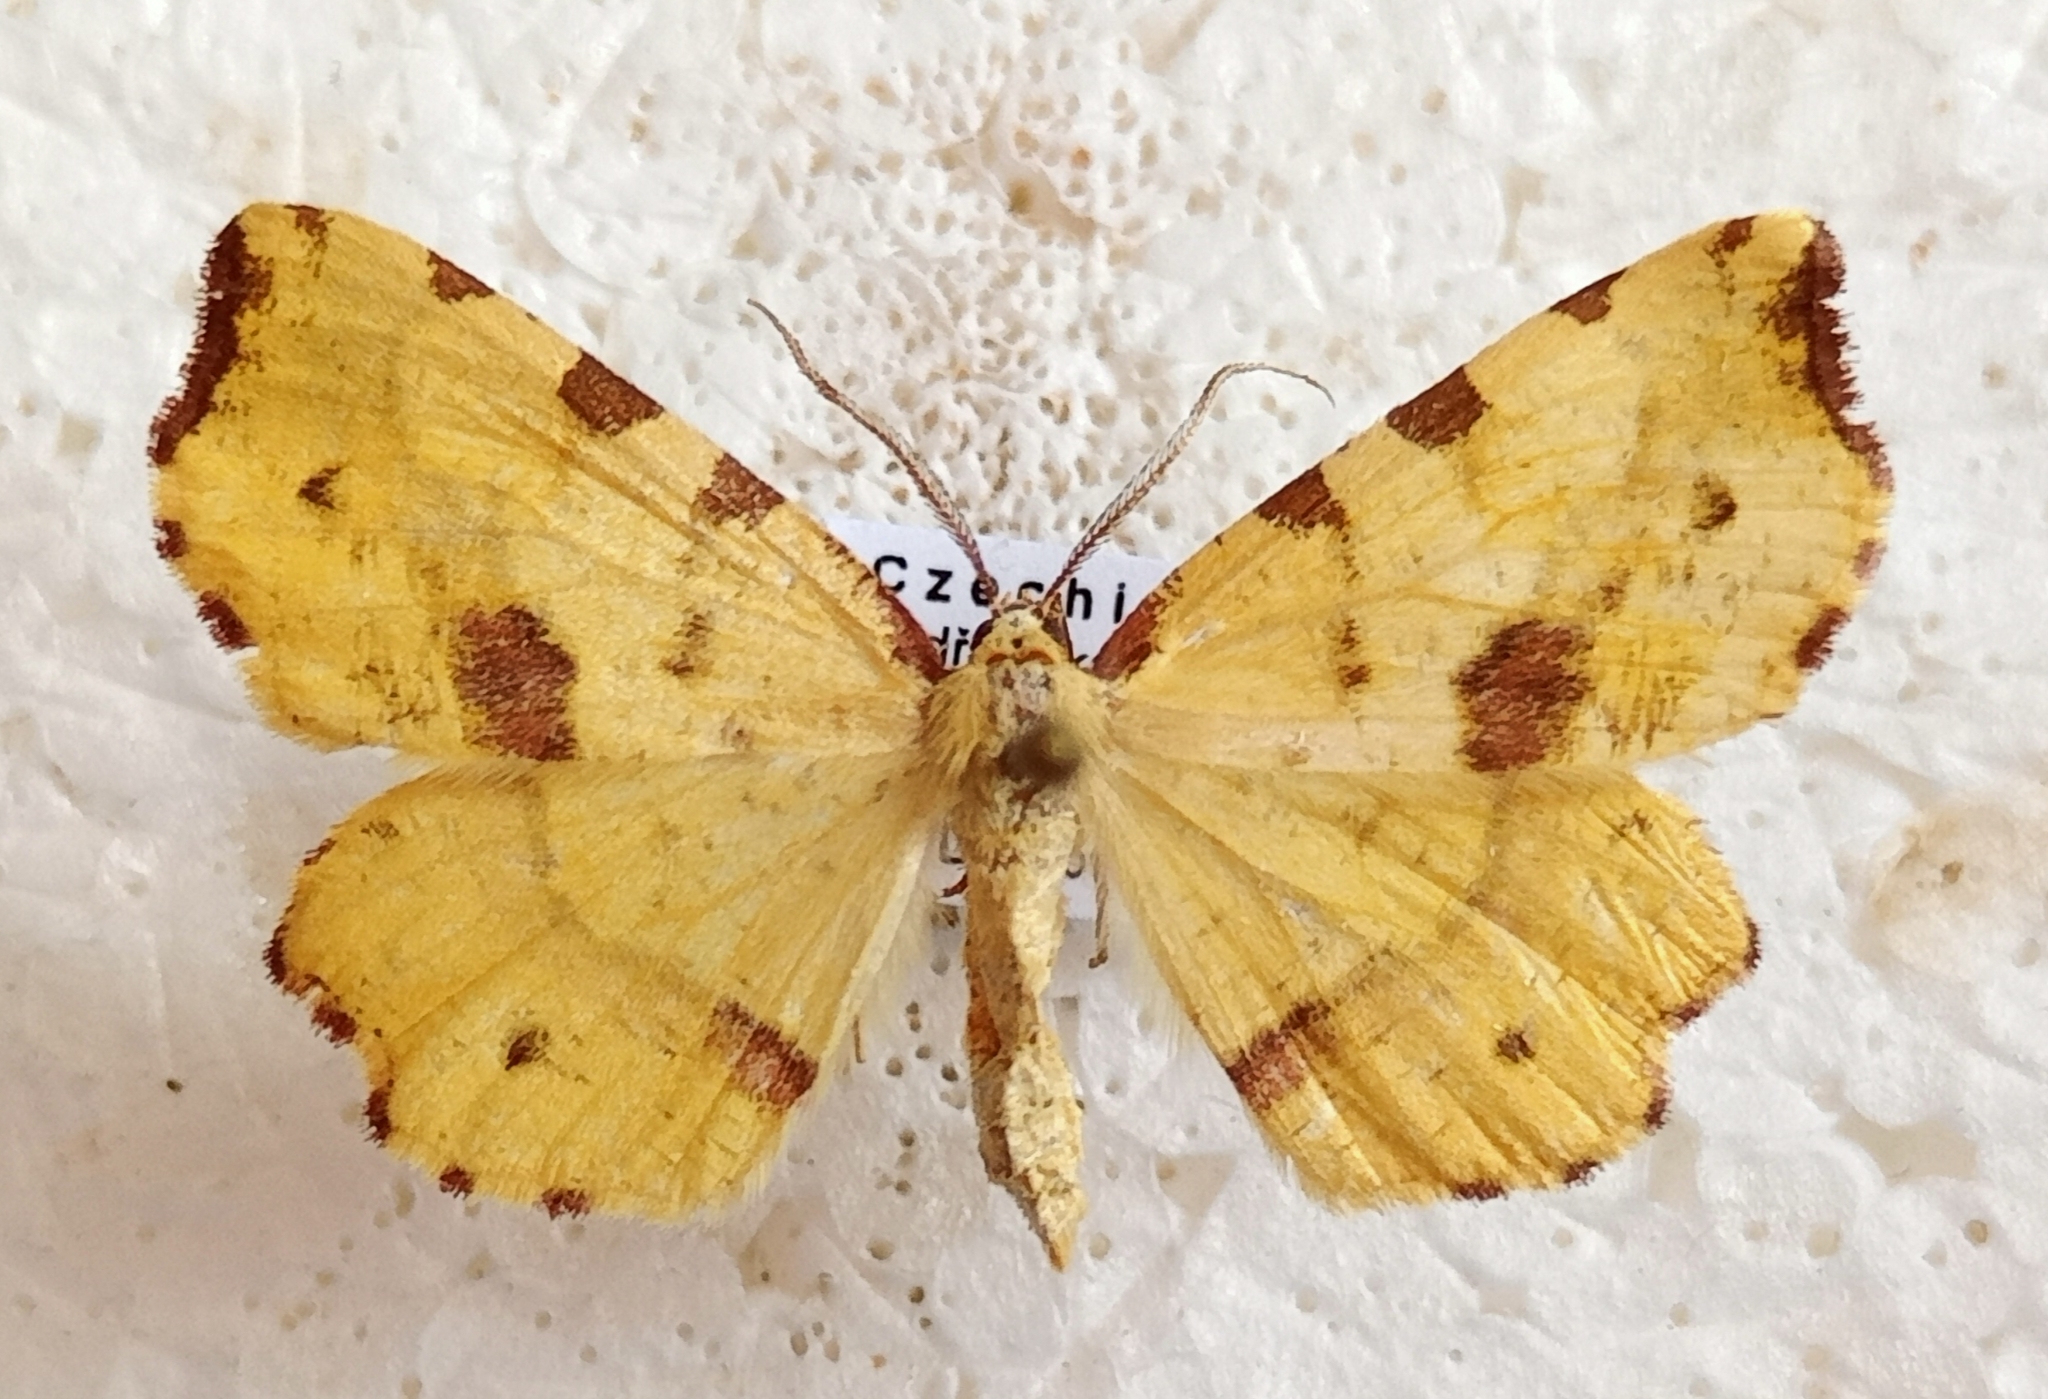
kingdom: Animalia
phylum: Arthropoda
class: Insecta
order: Lepidoptera
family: Geometridae
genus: Therapis
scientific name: Therapis flavicaria
